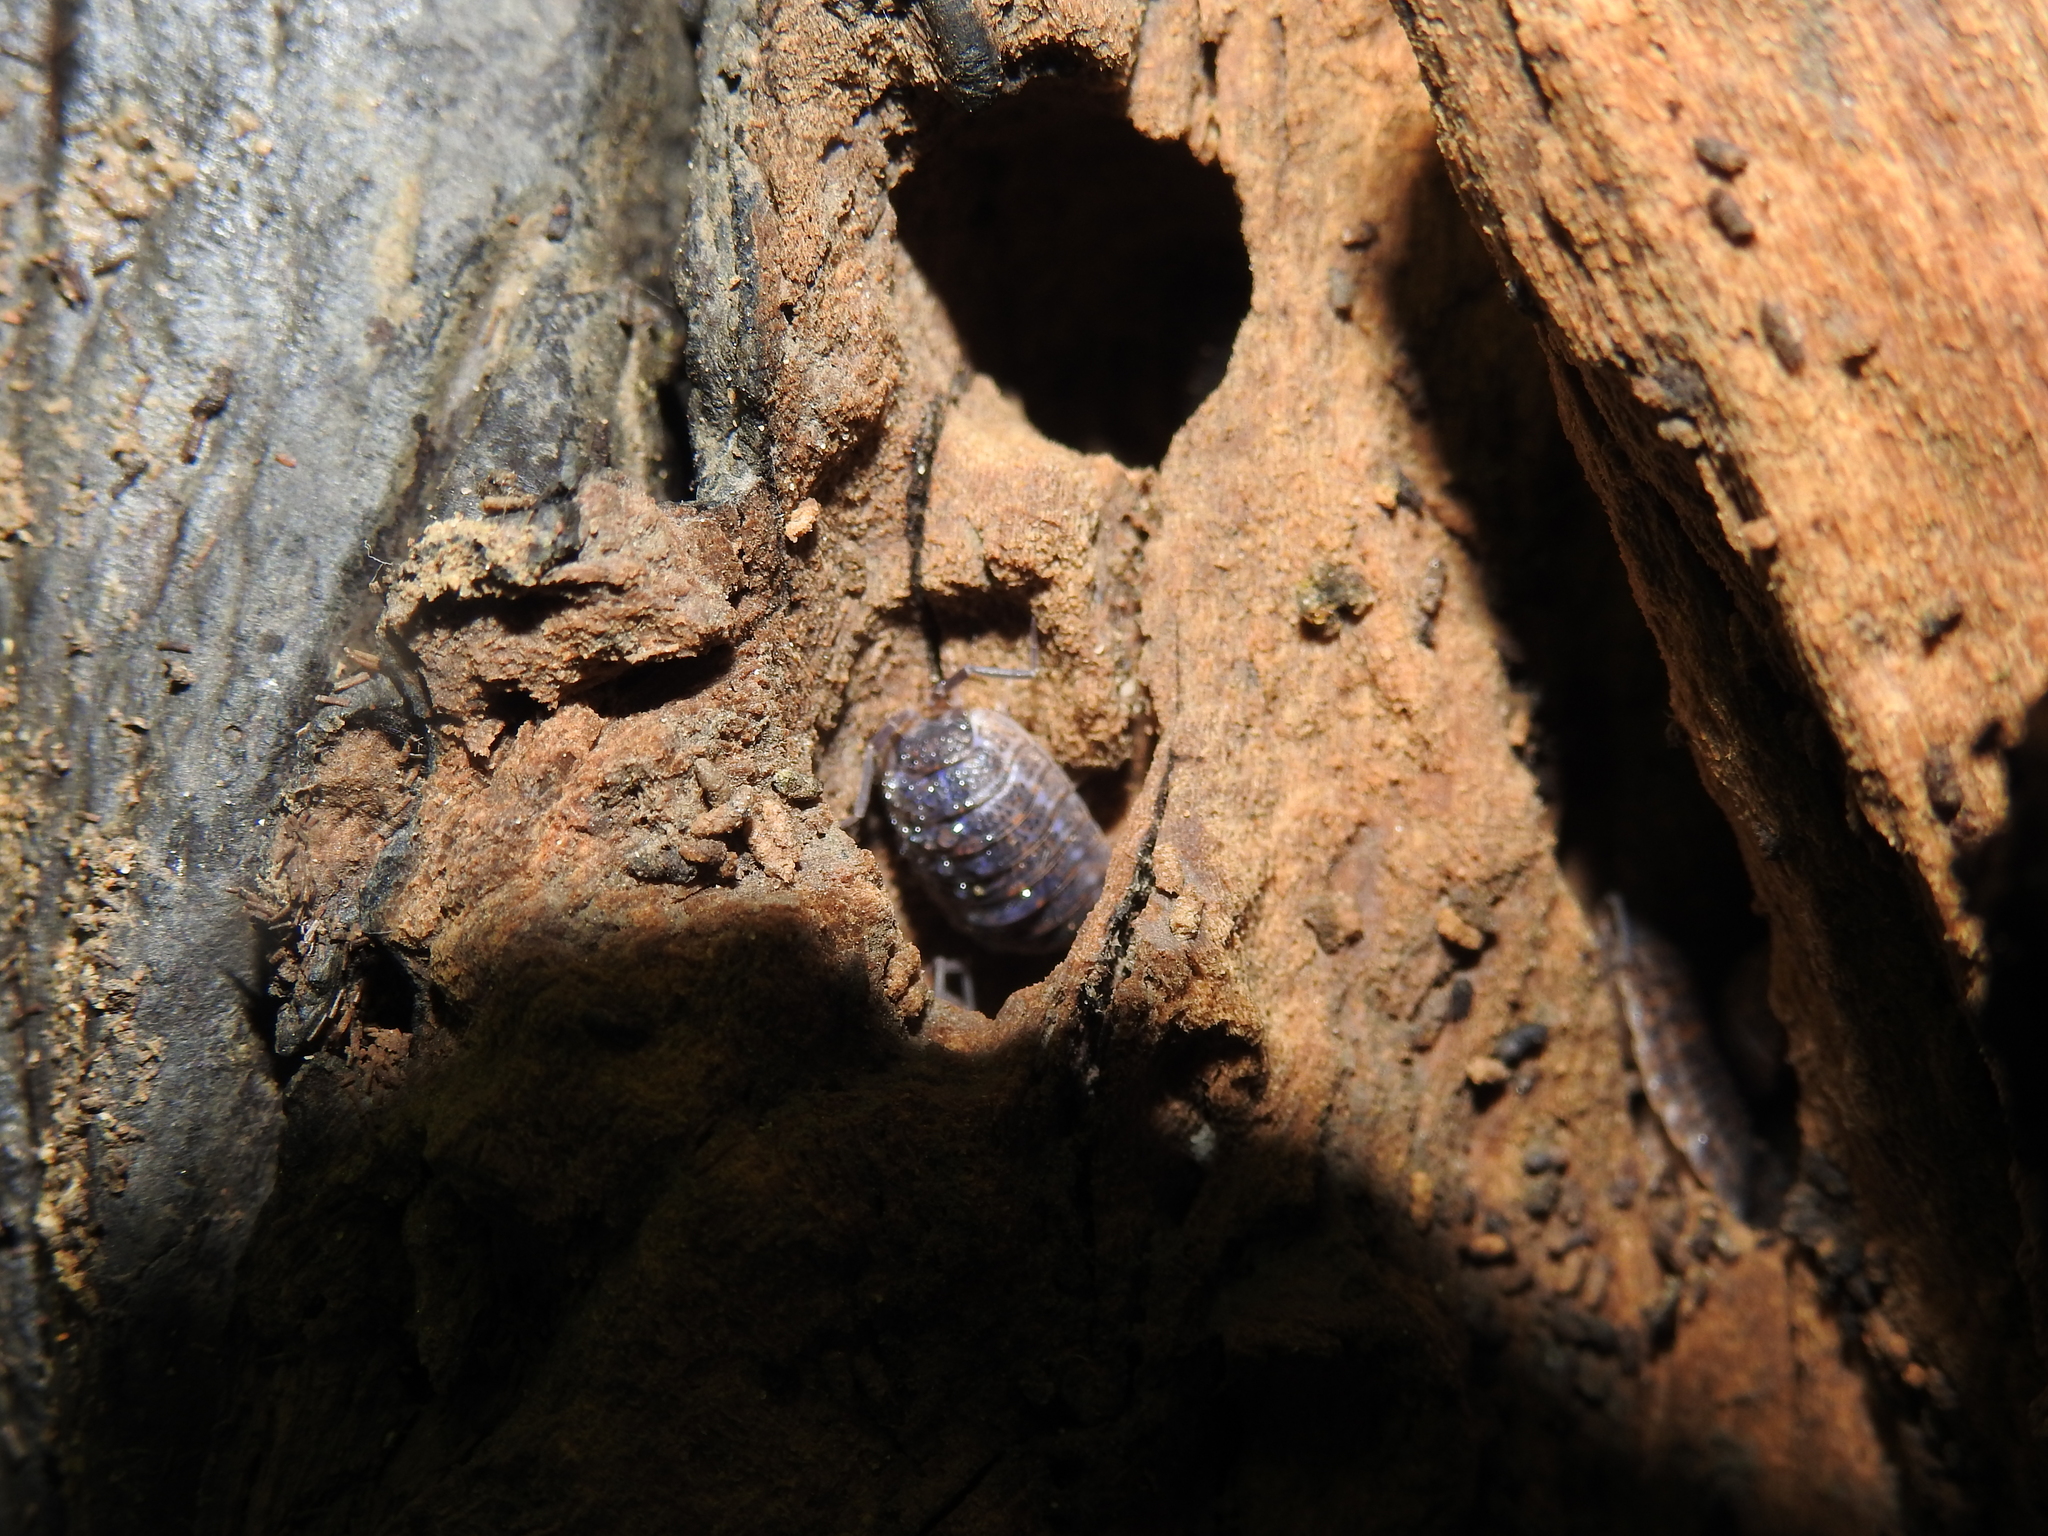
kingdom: Viruses
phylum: Nucleocytoviricota
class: Megaviricetes
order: Pimascovirales
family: Iridoviridae
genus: Iridovirus
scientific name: Iridovirus Invertebrate iridescent virus 31
